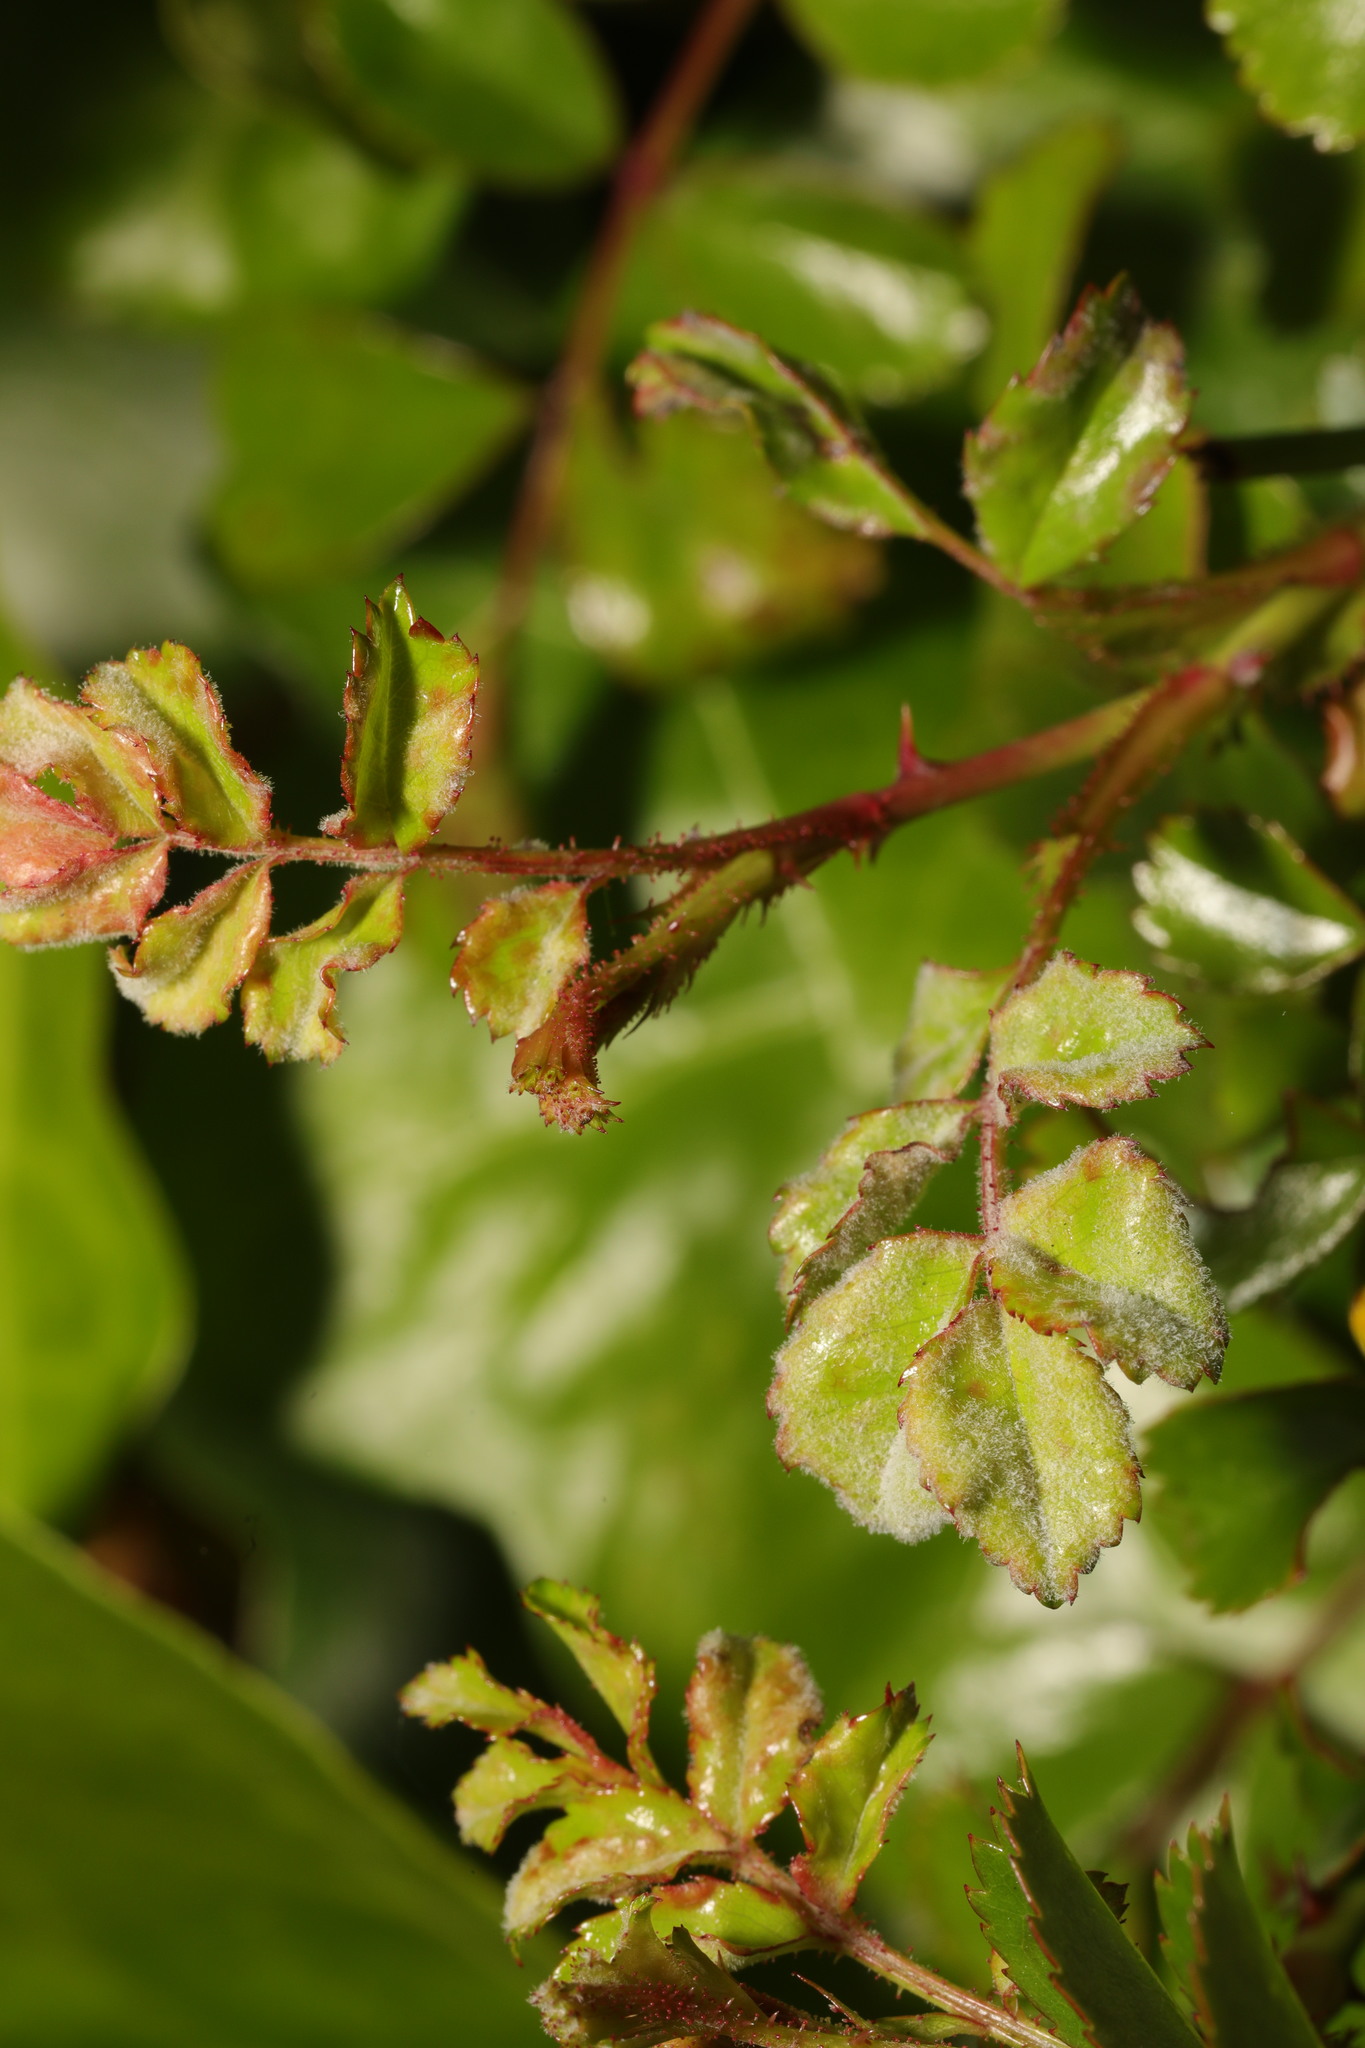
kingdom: Fungi
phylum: Ascomycota
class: Leotiomycetes
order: Helotiales
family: Erysiphaceae
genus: Podosphaera
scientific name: Podosphaera pannosa
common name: Rose mildew
